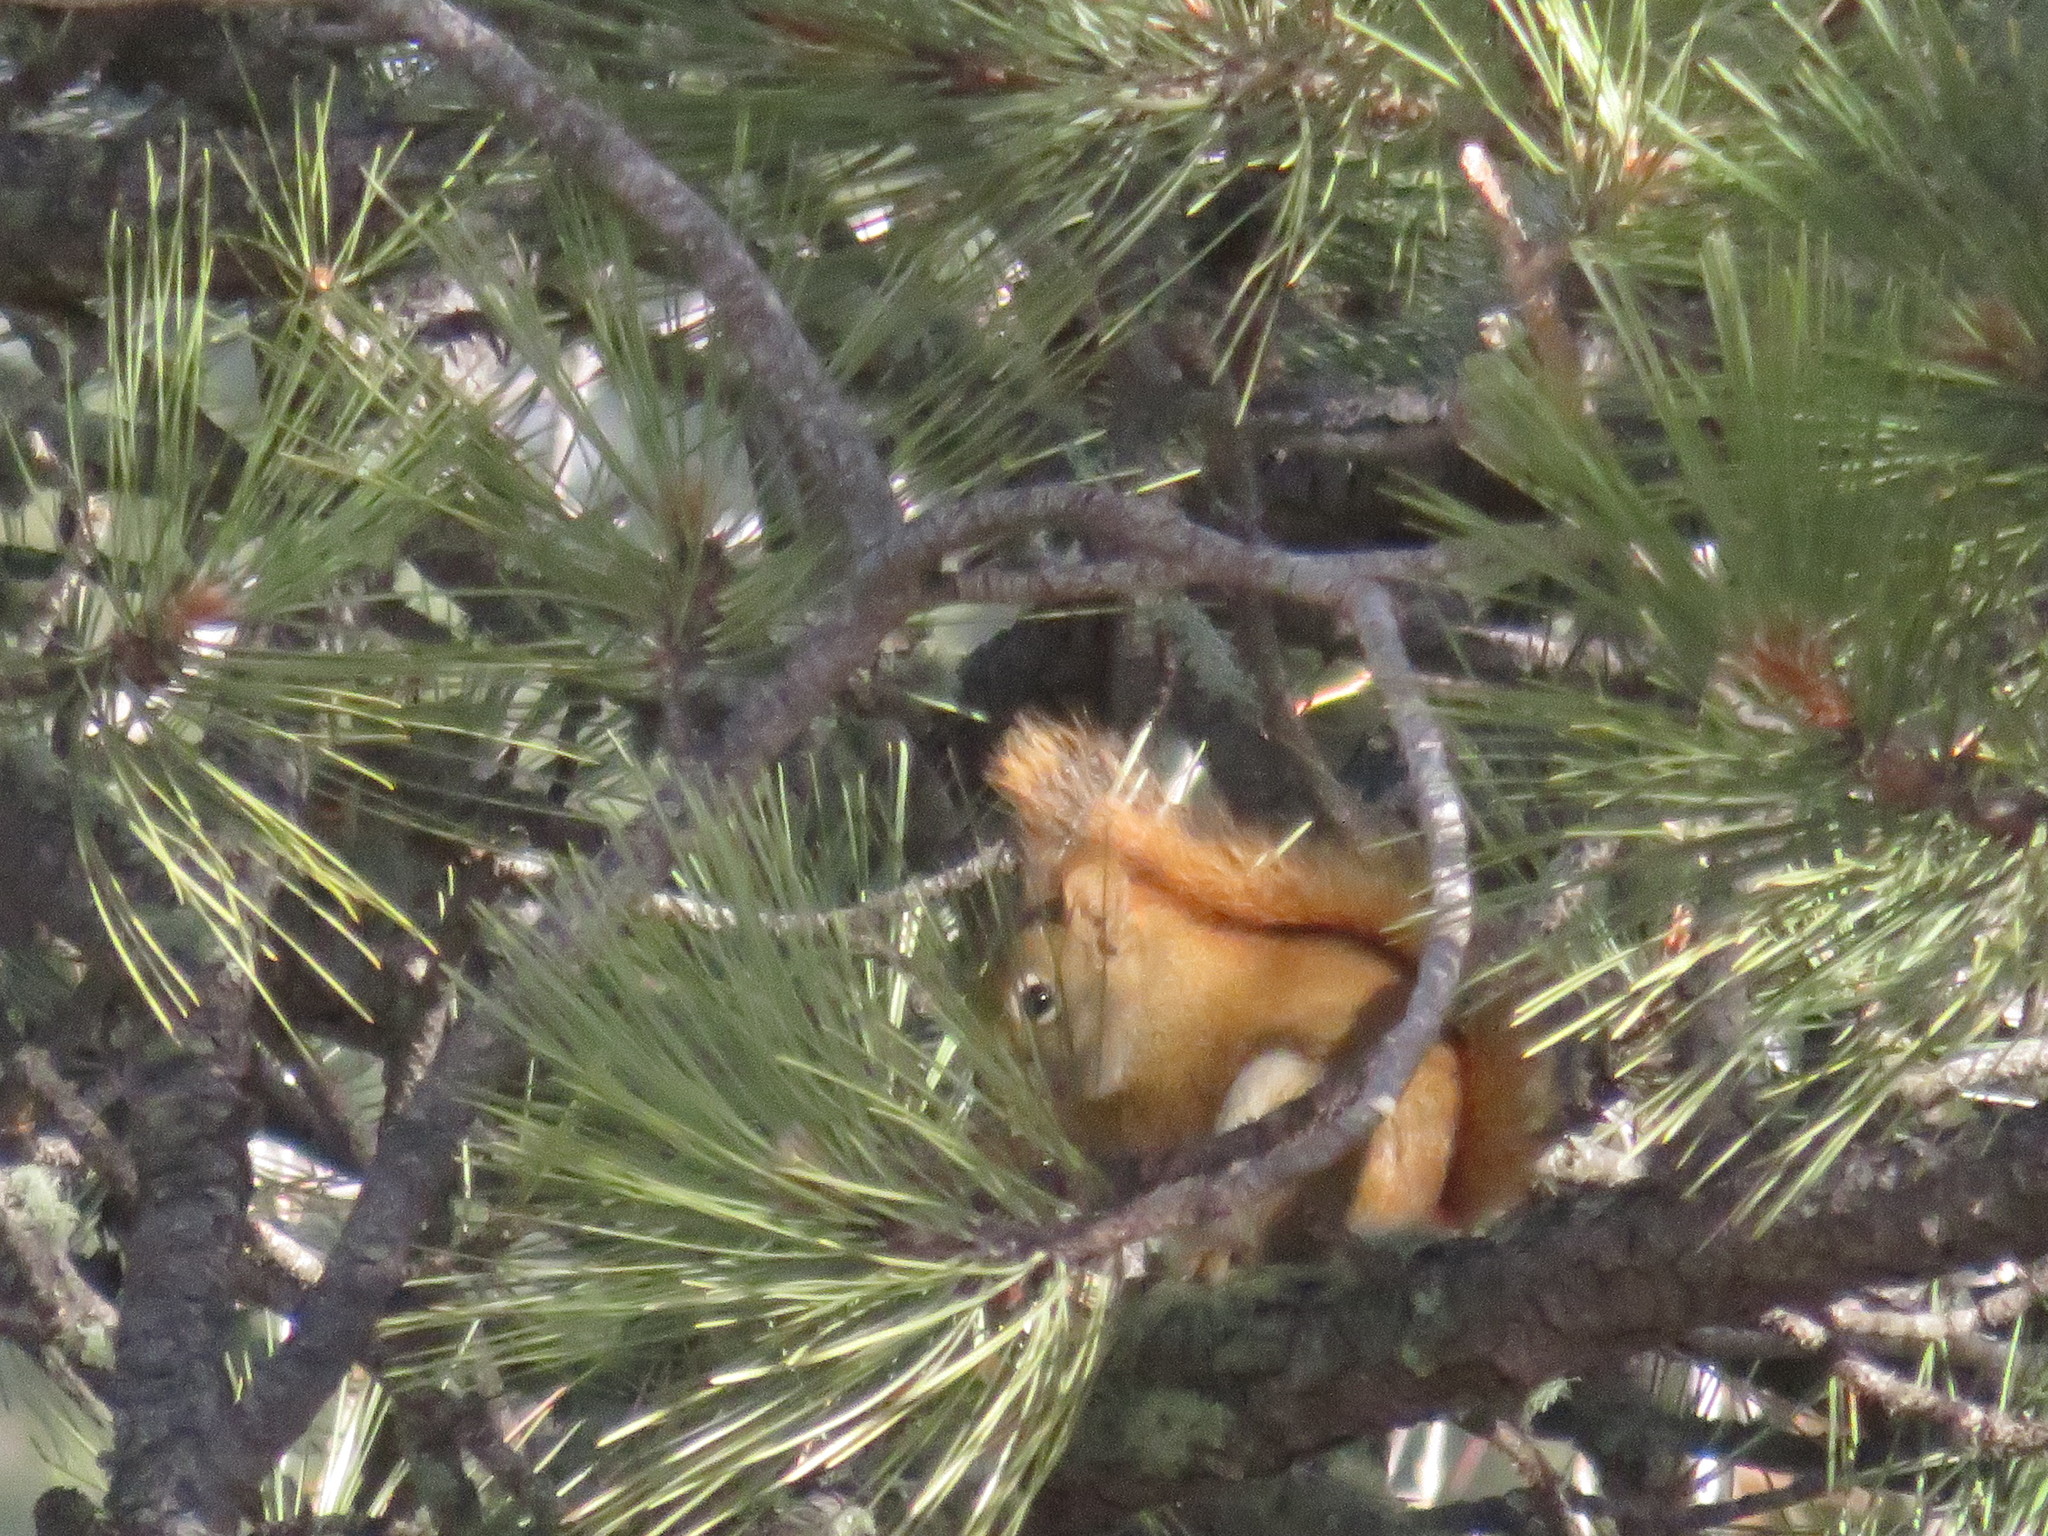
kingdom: Animalia
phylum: Chordata
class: Mammalia
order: Rodentia
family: Sciuridae
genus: Tamiasciurus
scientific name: Tamiasciurus hudsonicus
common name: Red squirrel
